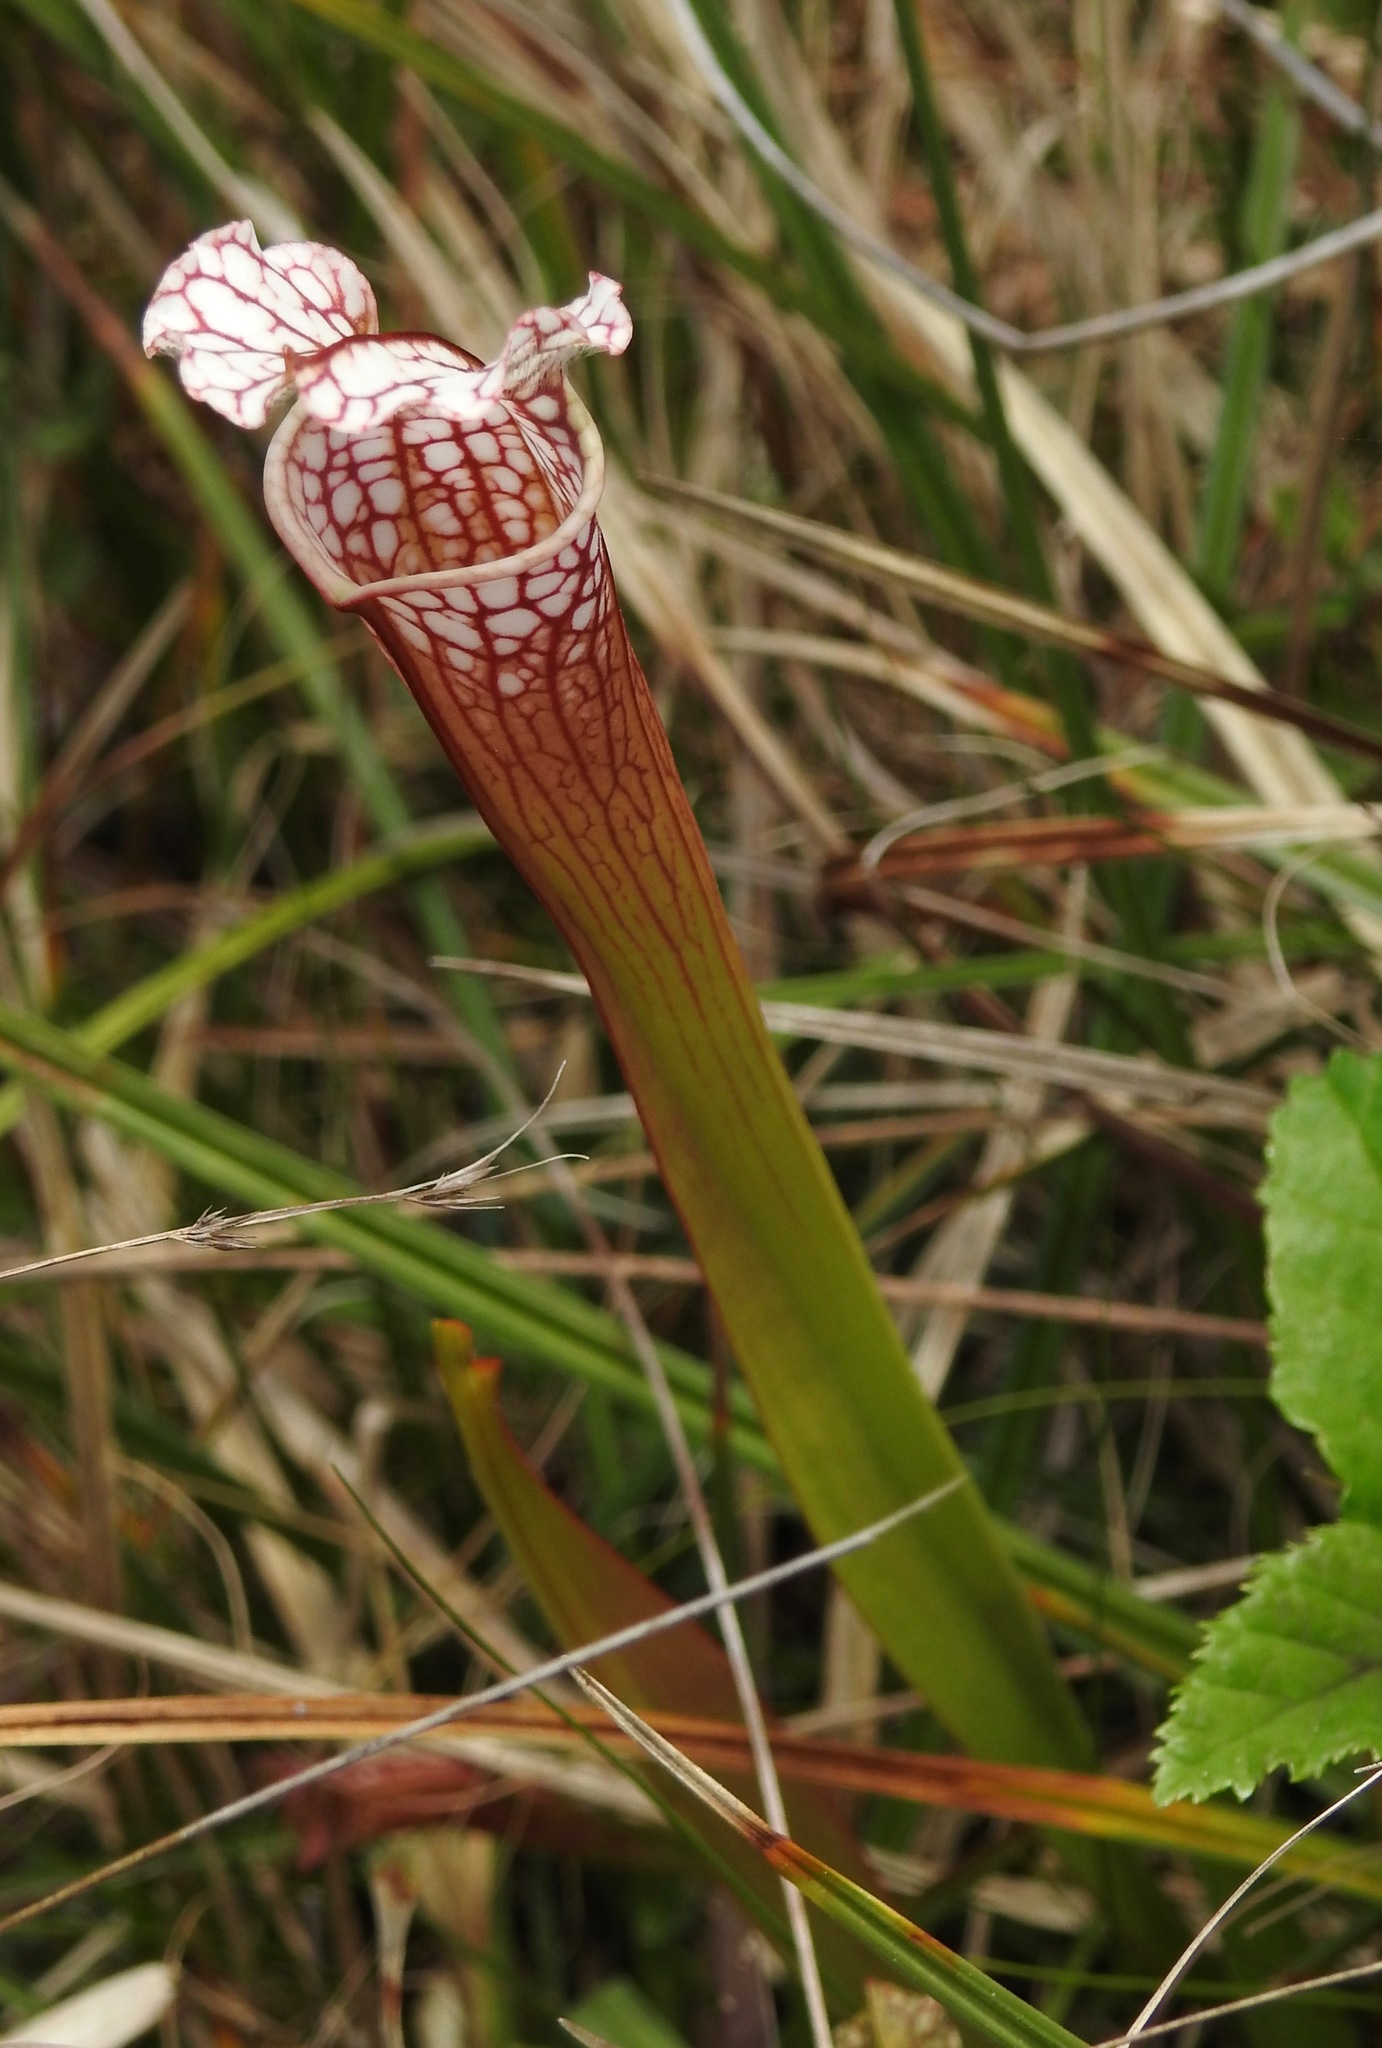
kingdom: Plantae
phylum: Tracheophyta
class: Magnoliopsida
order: Ericales
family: Sarraceniaceae
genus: Sarracenia
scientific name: Sarracenia leucophylla
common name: Purple trumpetleaf
